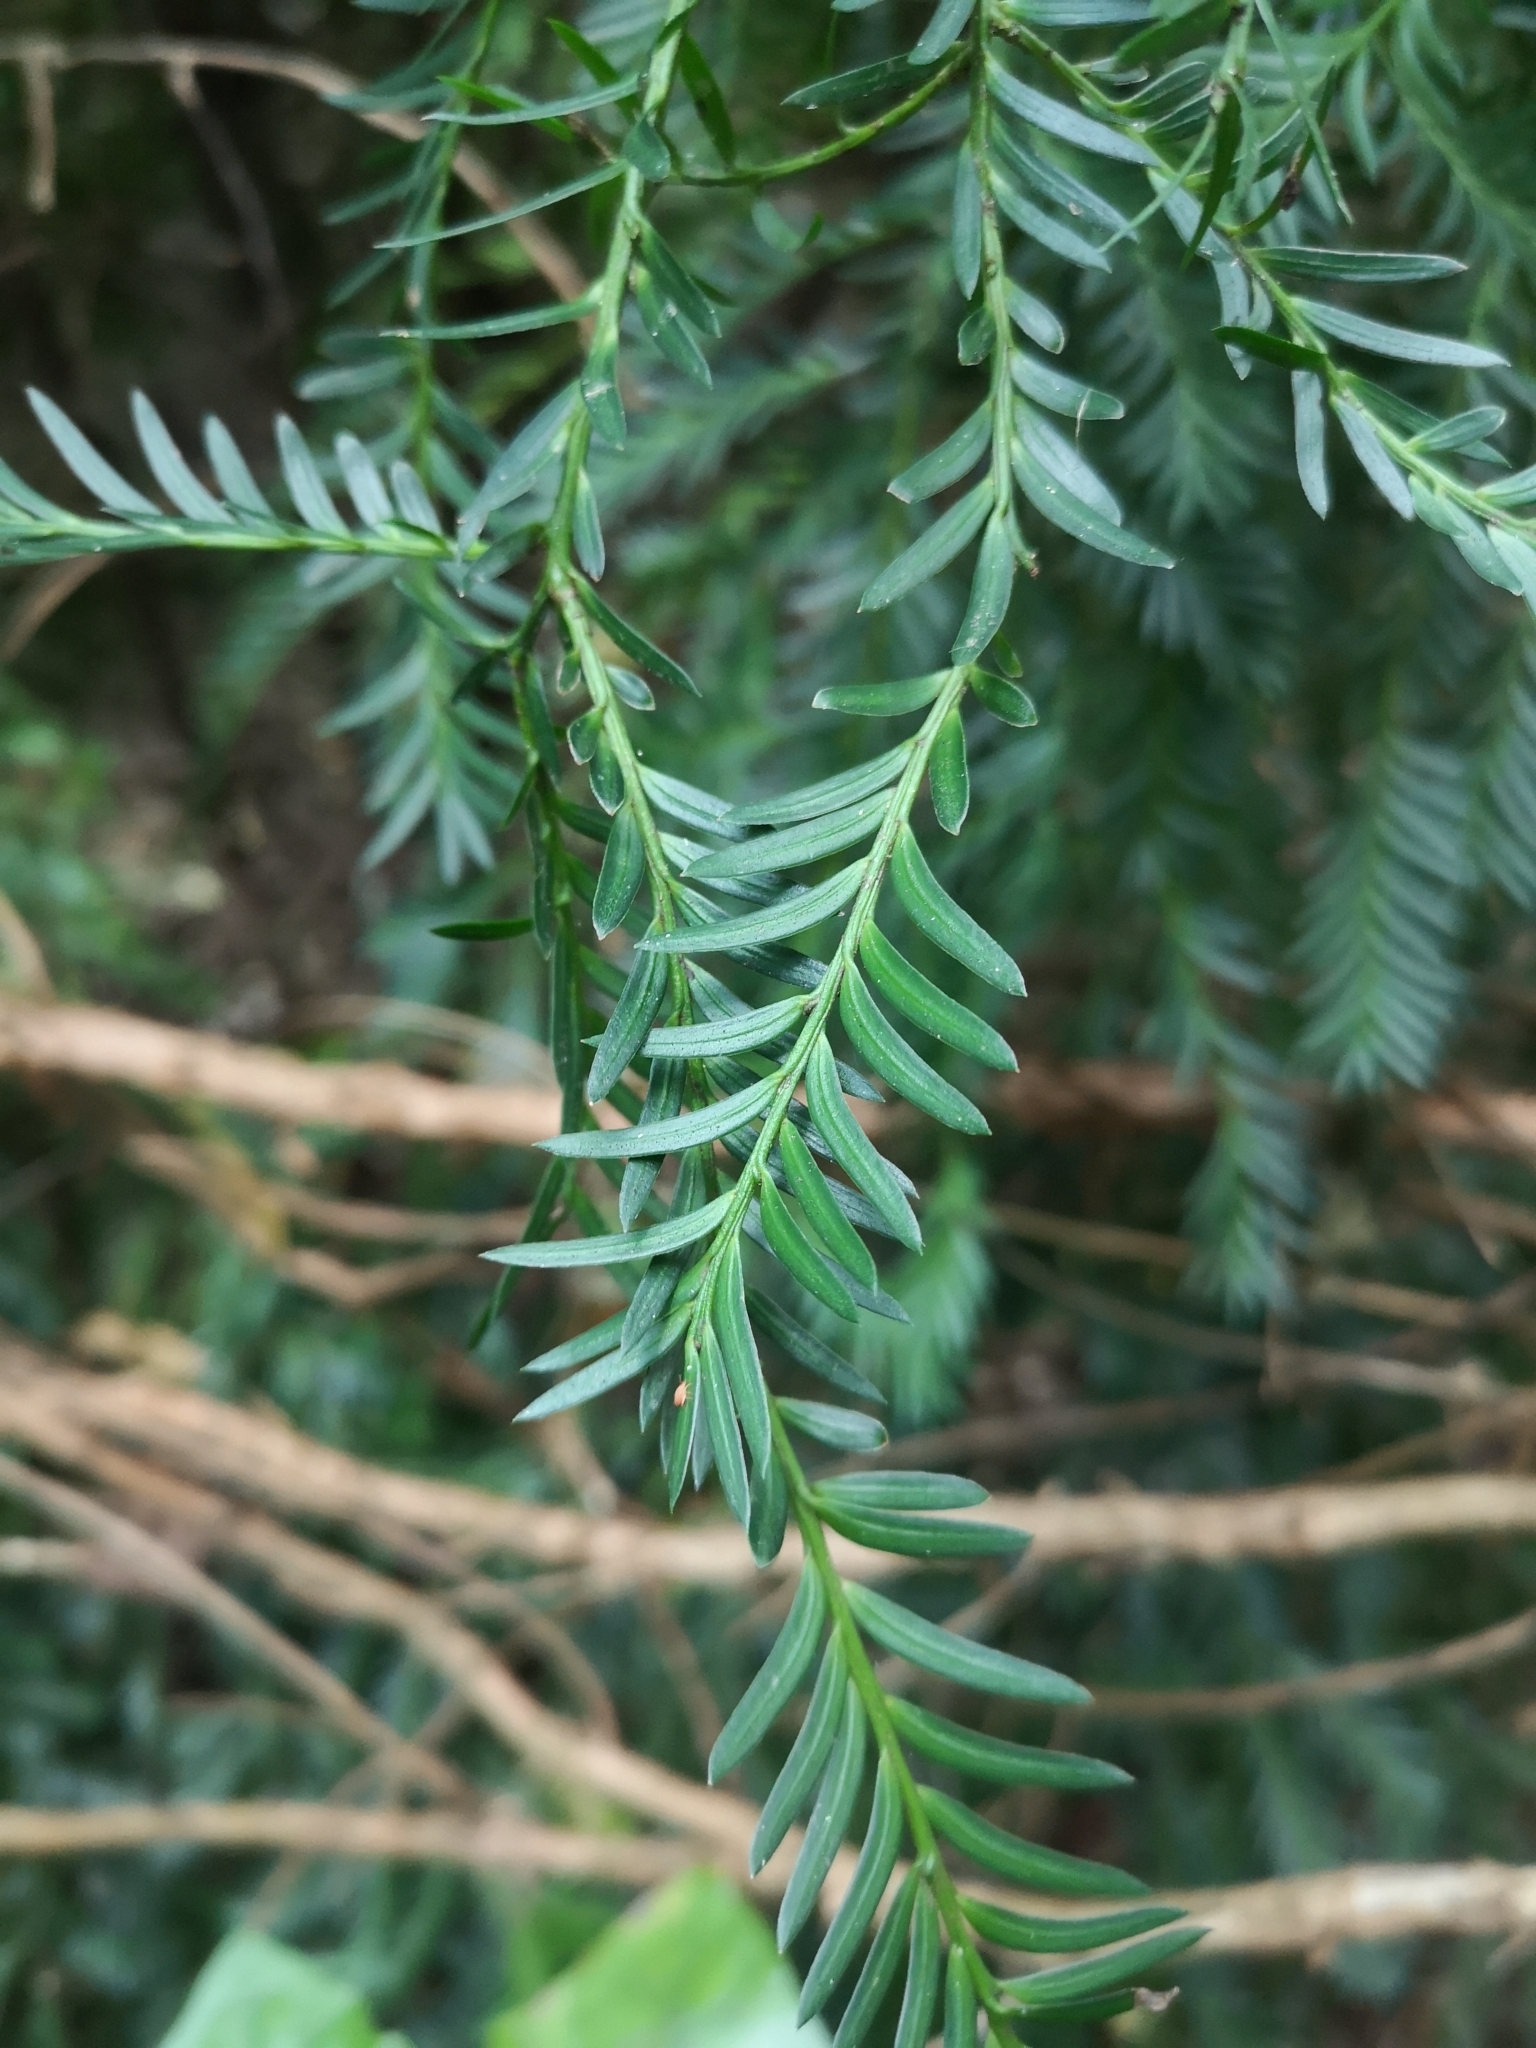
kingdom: Plantae
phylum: Tracheophyta
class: Pinopsida
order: Pinales
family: Podocarpaceae
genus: Prumnopitys
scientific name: Prumnopitys ferruginea
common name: Brown pine
